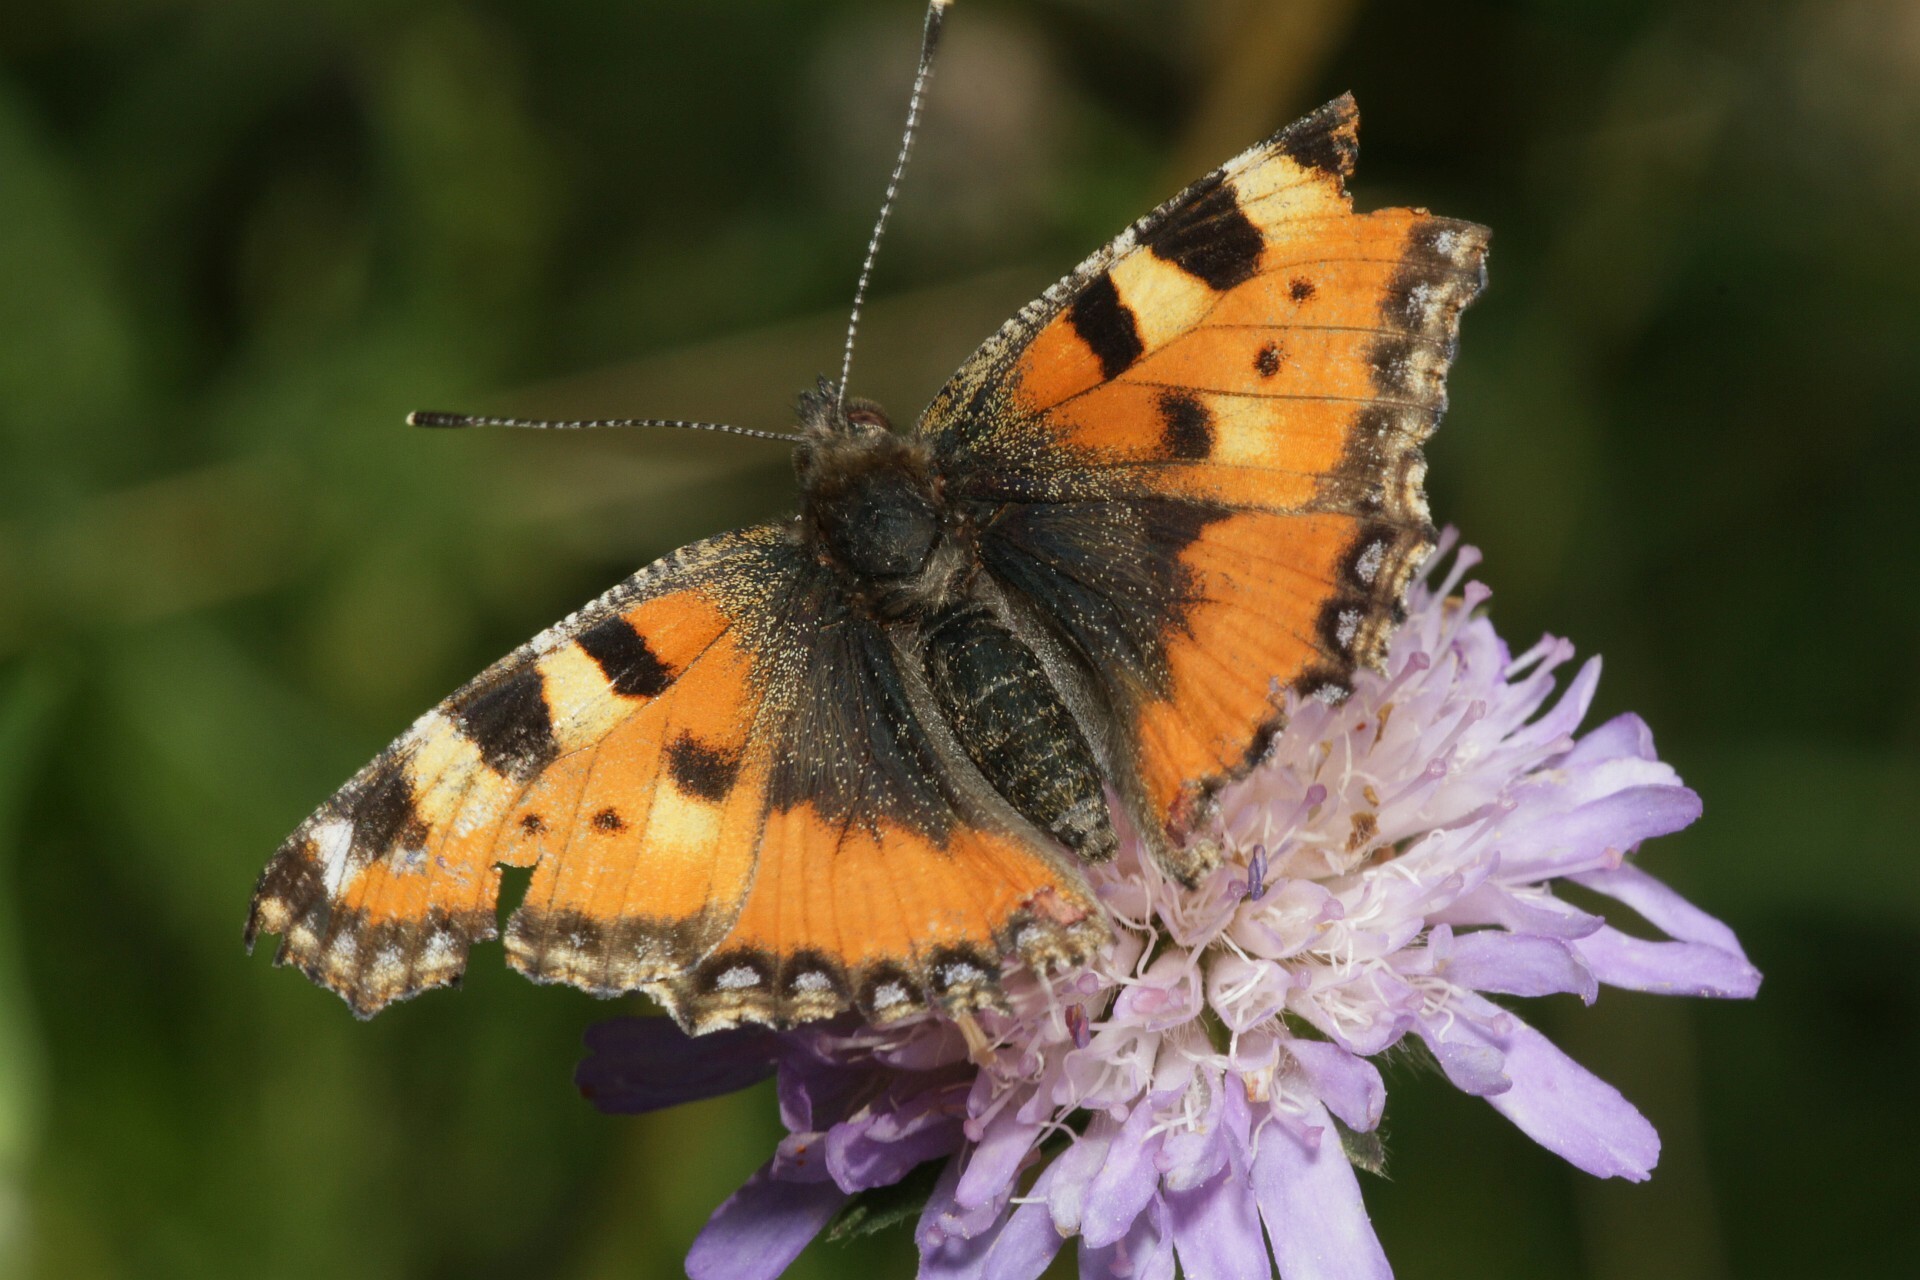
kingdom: Animalia
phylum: Arthropoda
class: Insecta
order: Lepidoptera
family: Nymphalidae
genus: Aglais
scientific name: Aglais urticae
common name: Small tortoiseshell
